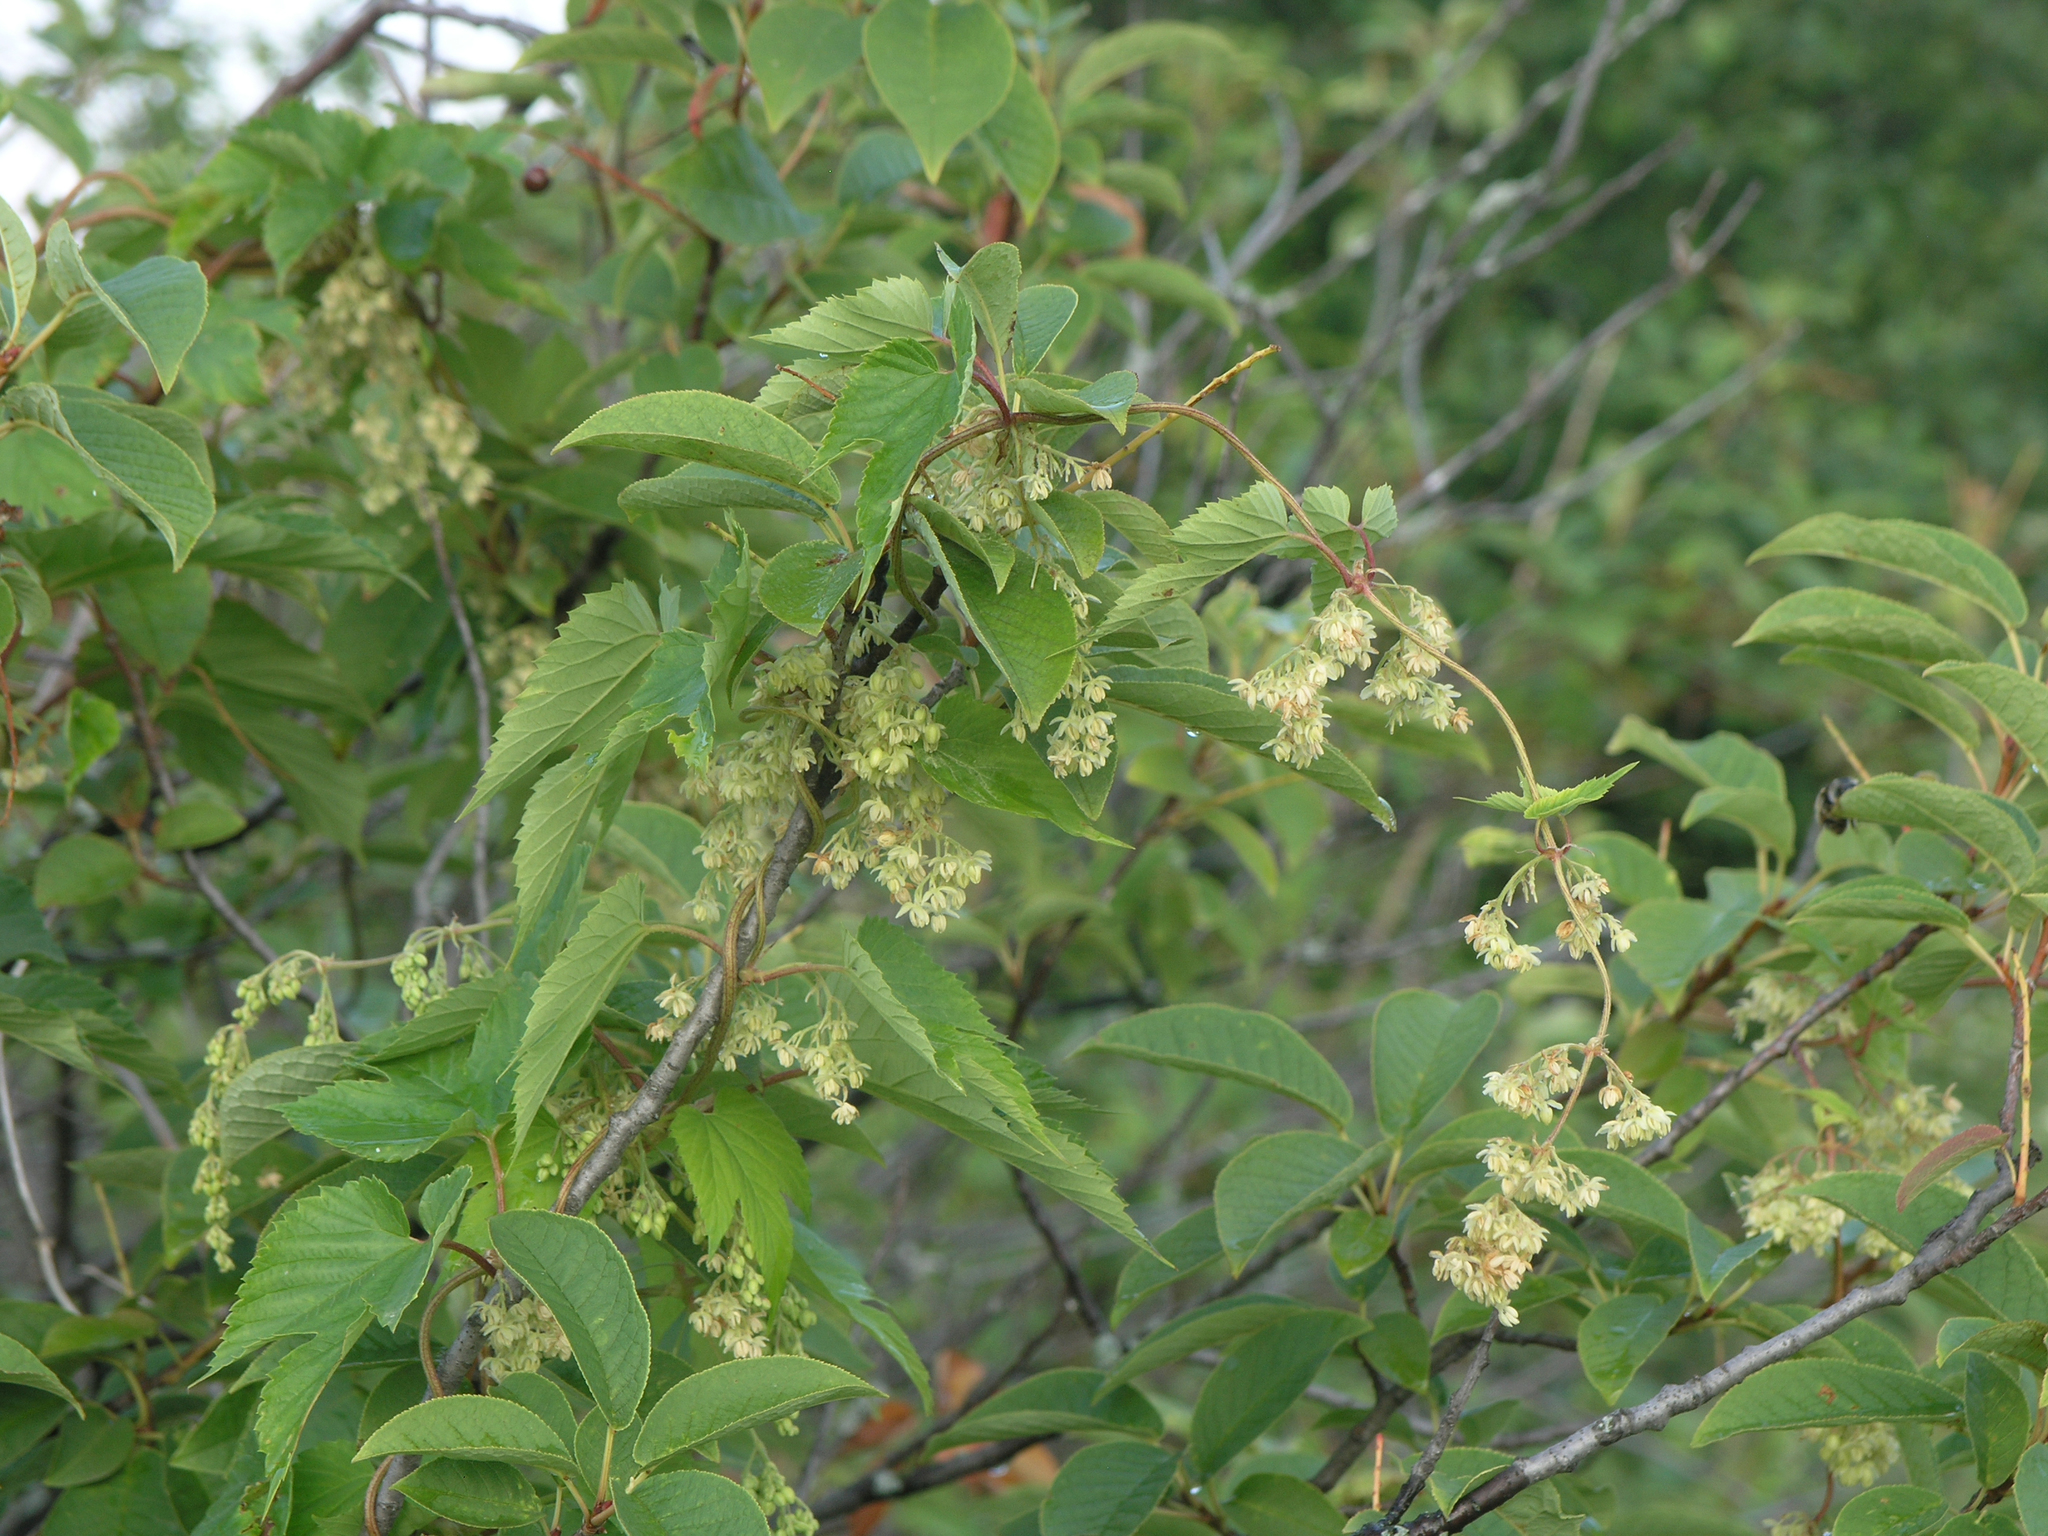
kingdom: Plantae
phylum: Tracheophyta
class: Magnoliopsida
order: Rosales
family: Cannabaceae
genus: Humulus
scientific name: Humulus lupulus
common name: Hop
